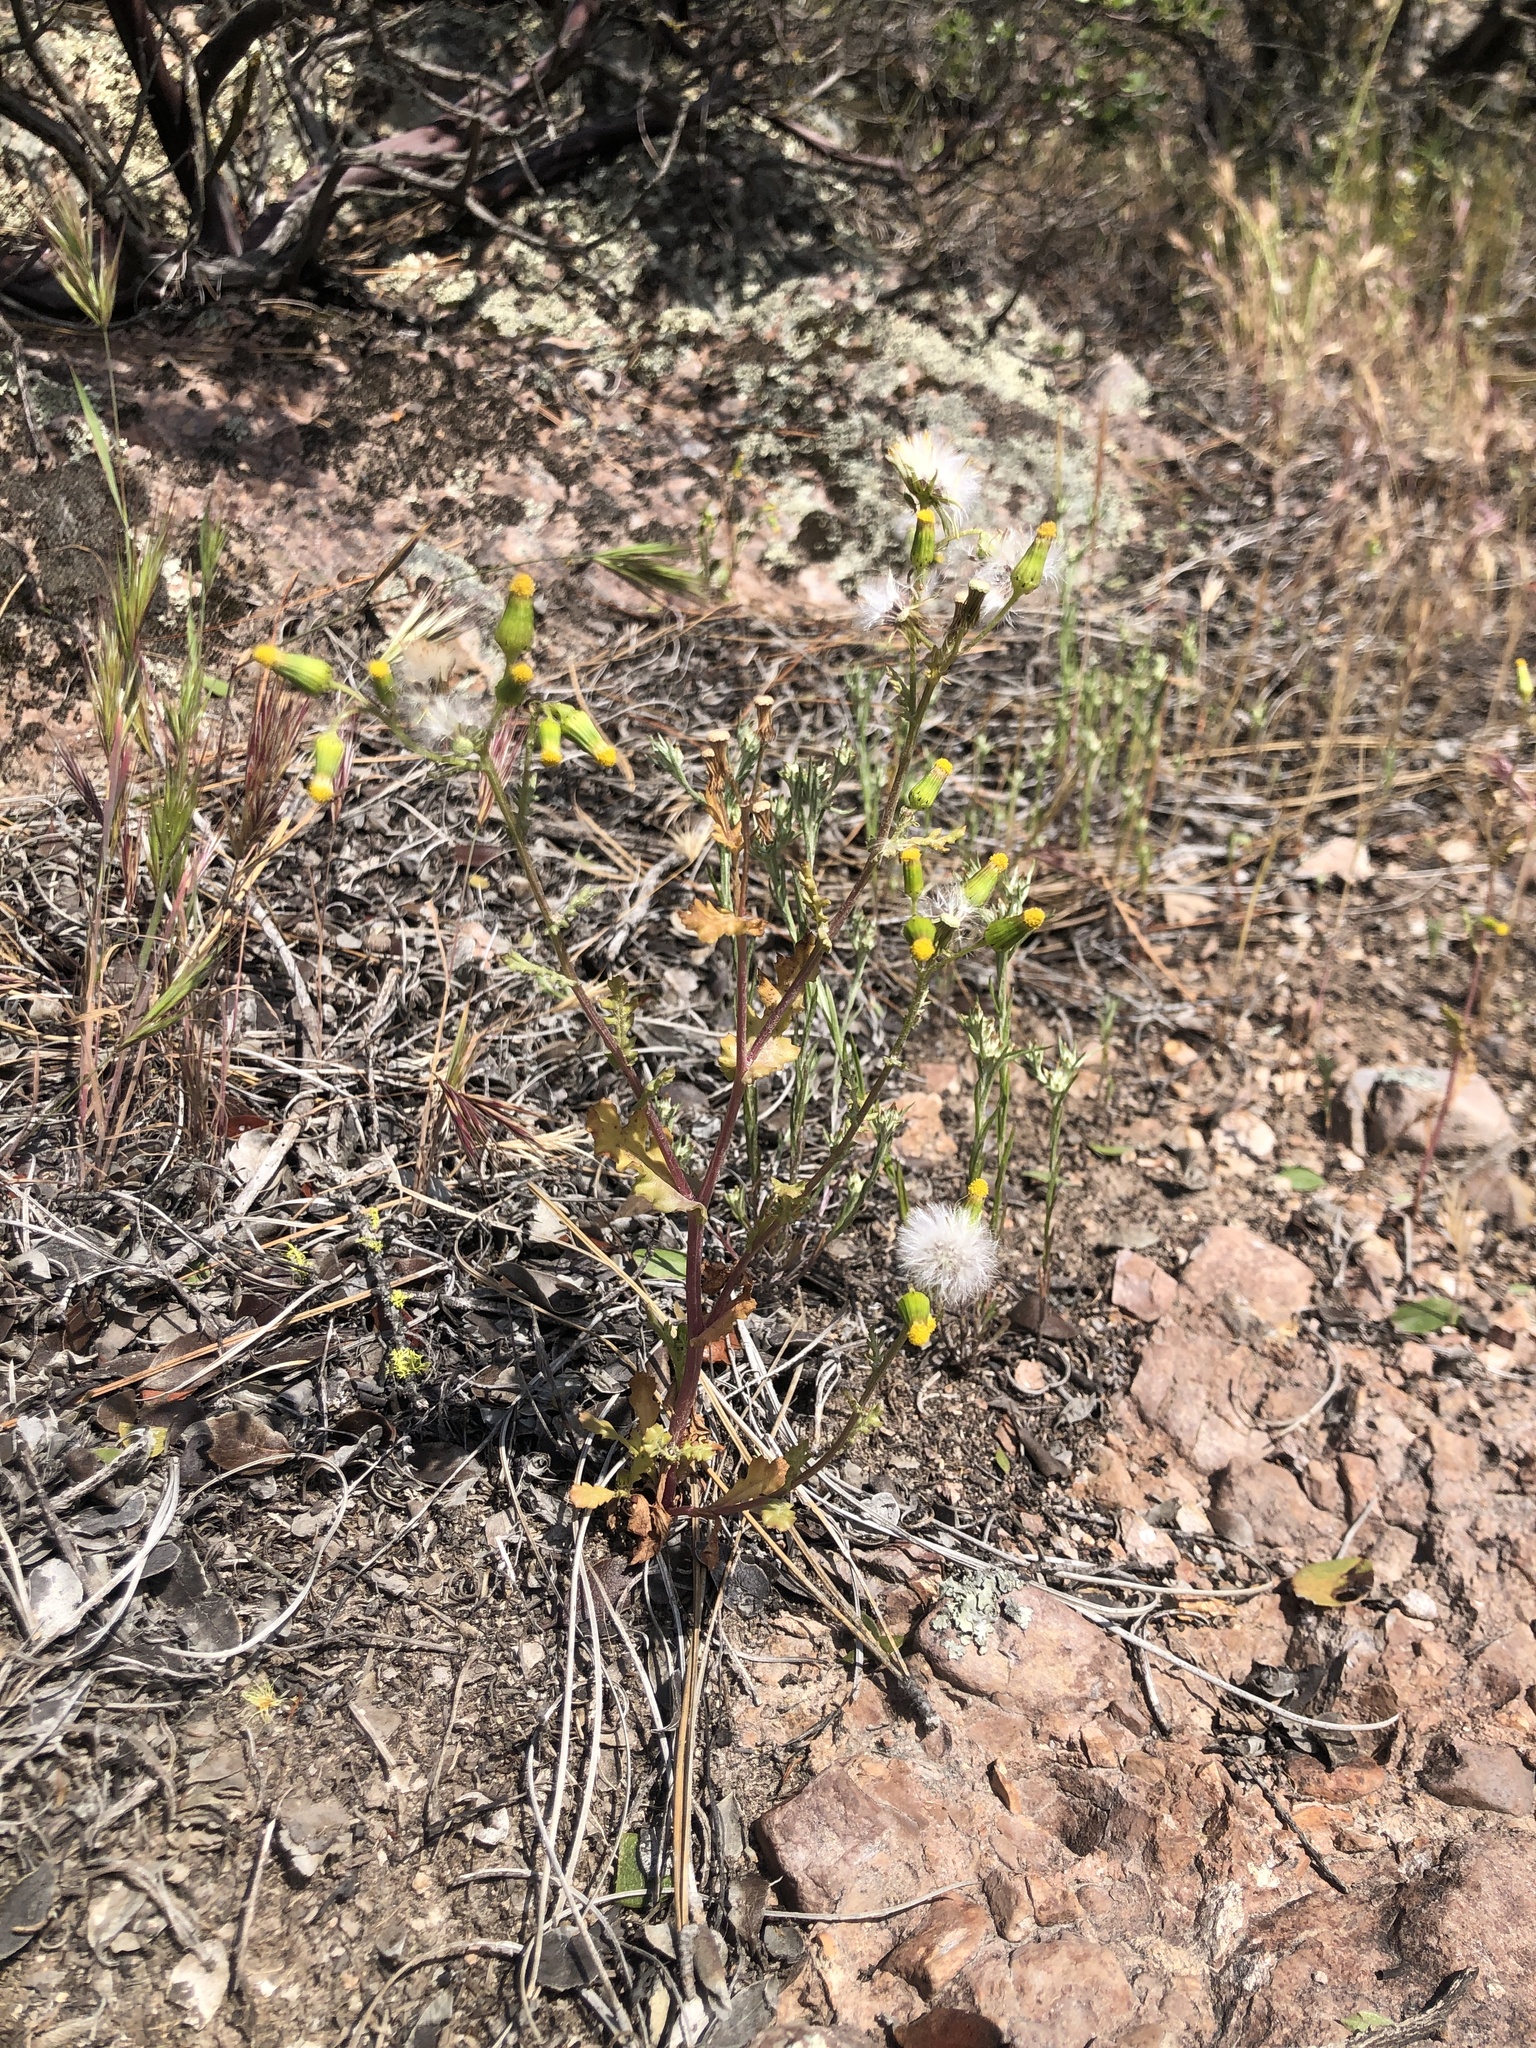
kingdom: Plantae
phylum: Tracheophyta
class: Magnoliopsida
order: Asterales
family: Asteraceae
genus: Senecio
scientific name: Senecio vulgaris
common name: Old-man-in-the-spring
